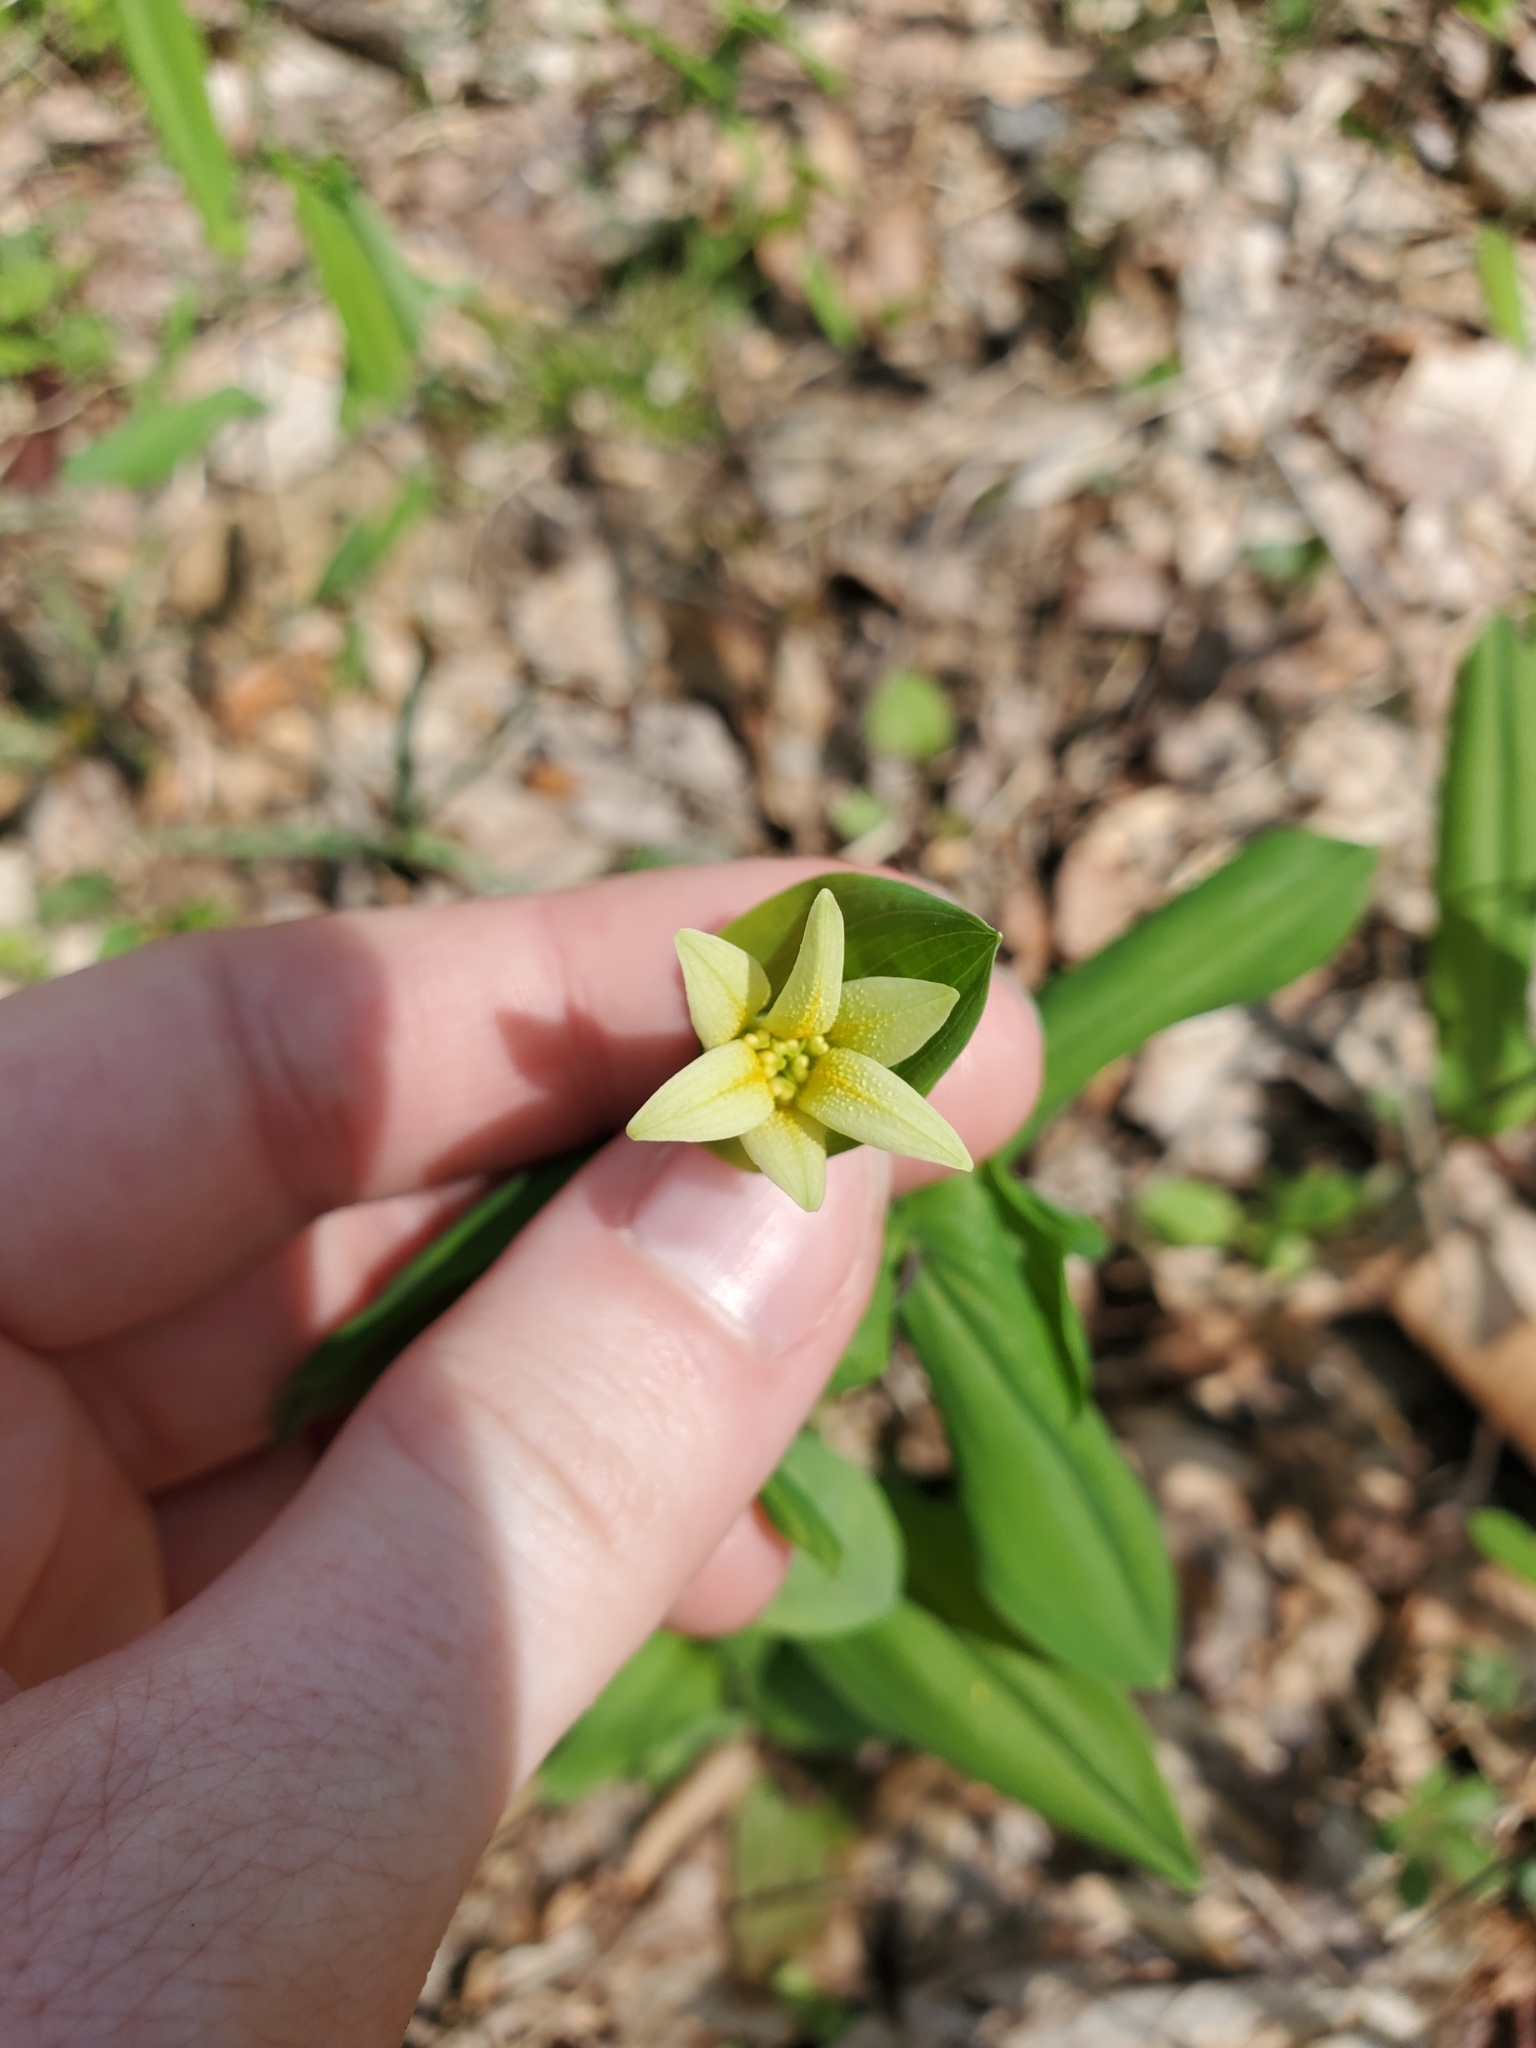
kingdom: Plantae
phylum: Tracheophyta
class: Liliopsida
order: Liliales
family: Colchicaceae
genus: Uvularia
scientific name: Uvularia perfoliata
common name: Perfoliate bellwort
